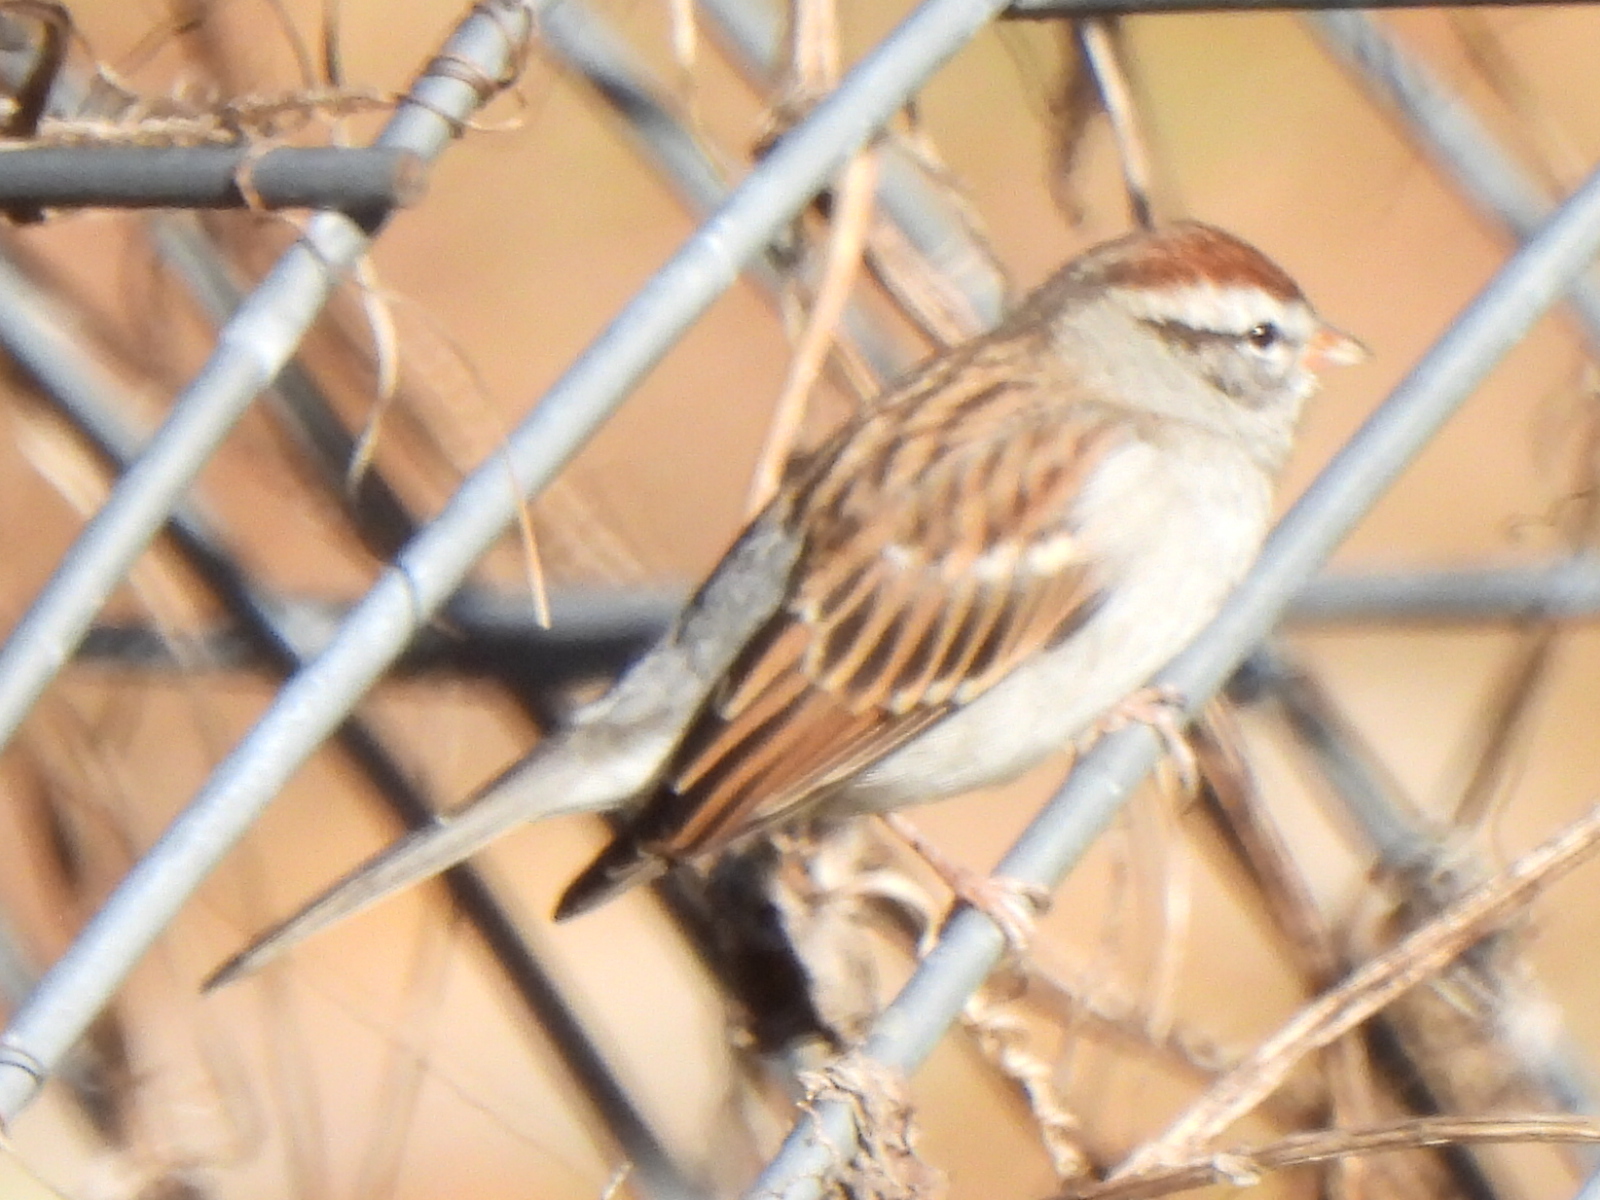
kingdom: Animalia
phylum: Chordata
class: Aves
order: Passeriformes
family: Passerellidae
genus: Spizella
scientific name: Spizella passerina
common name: Chipping sparrow
